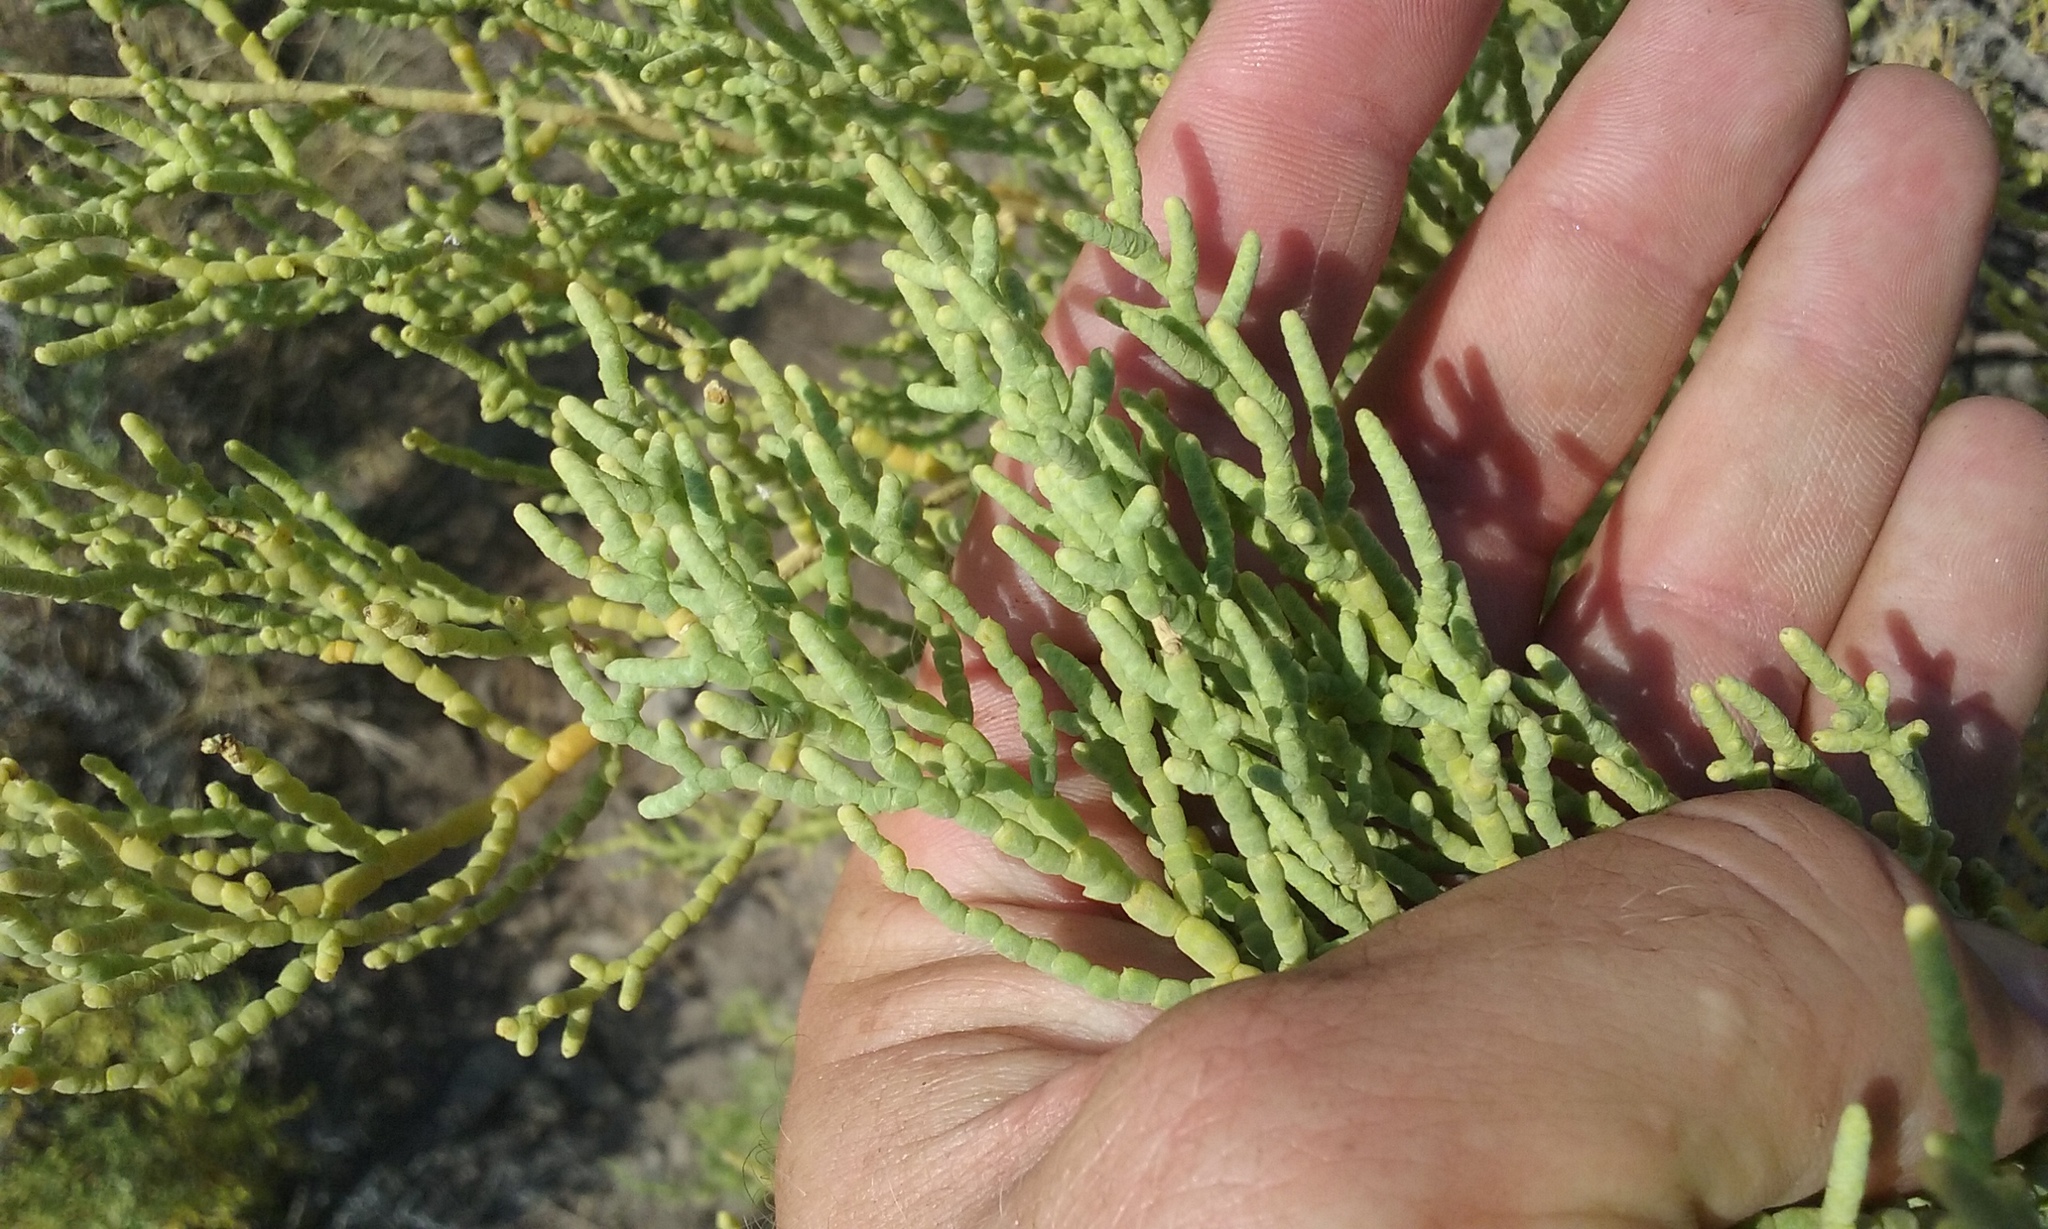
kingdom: Plantae
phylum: Tracheophyta
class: Magnoliopsida
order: Caryophyllales
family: Amaranthaceae
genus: Allenrolfea
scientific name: Allenrolfea occidentalis
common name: Iodine-bush
